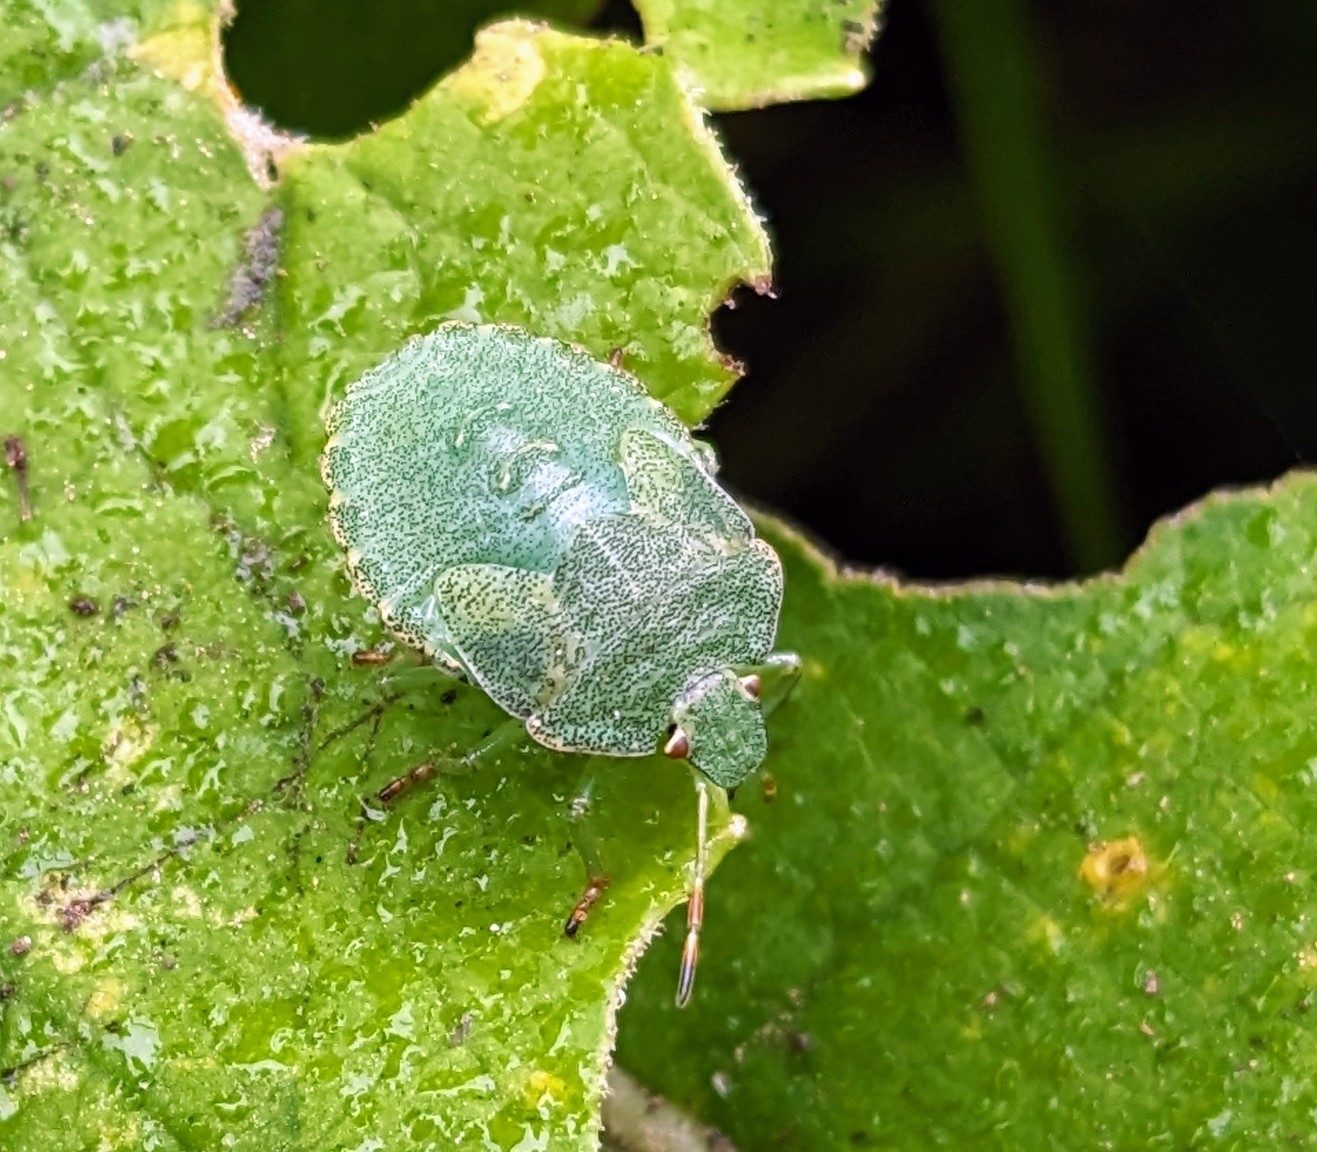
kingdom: Animalia
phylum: Arthropoda
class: Insecta
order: Hemiptera
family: Pentatomidae
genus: Palomena
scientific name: Palomena prasina
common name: Green shieldbug
